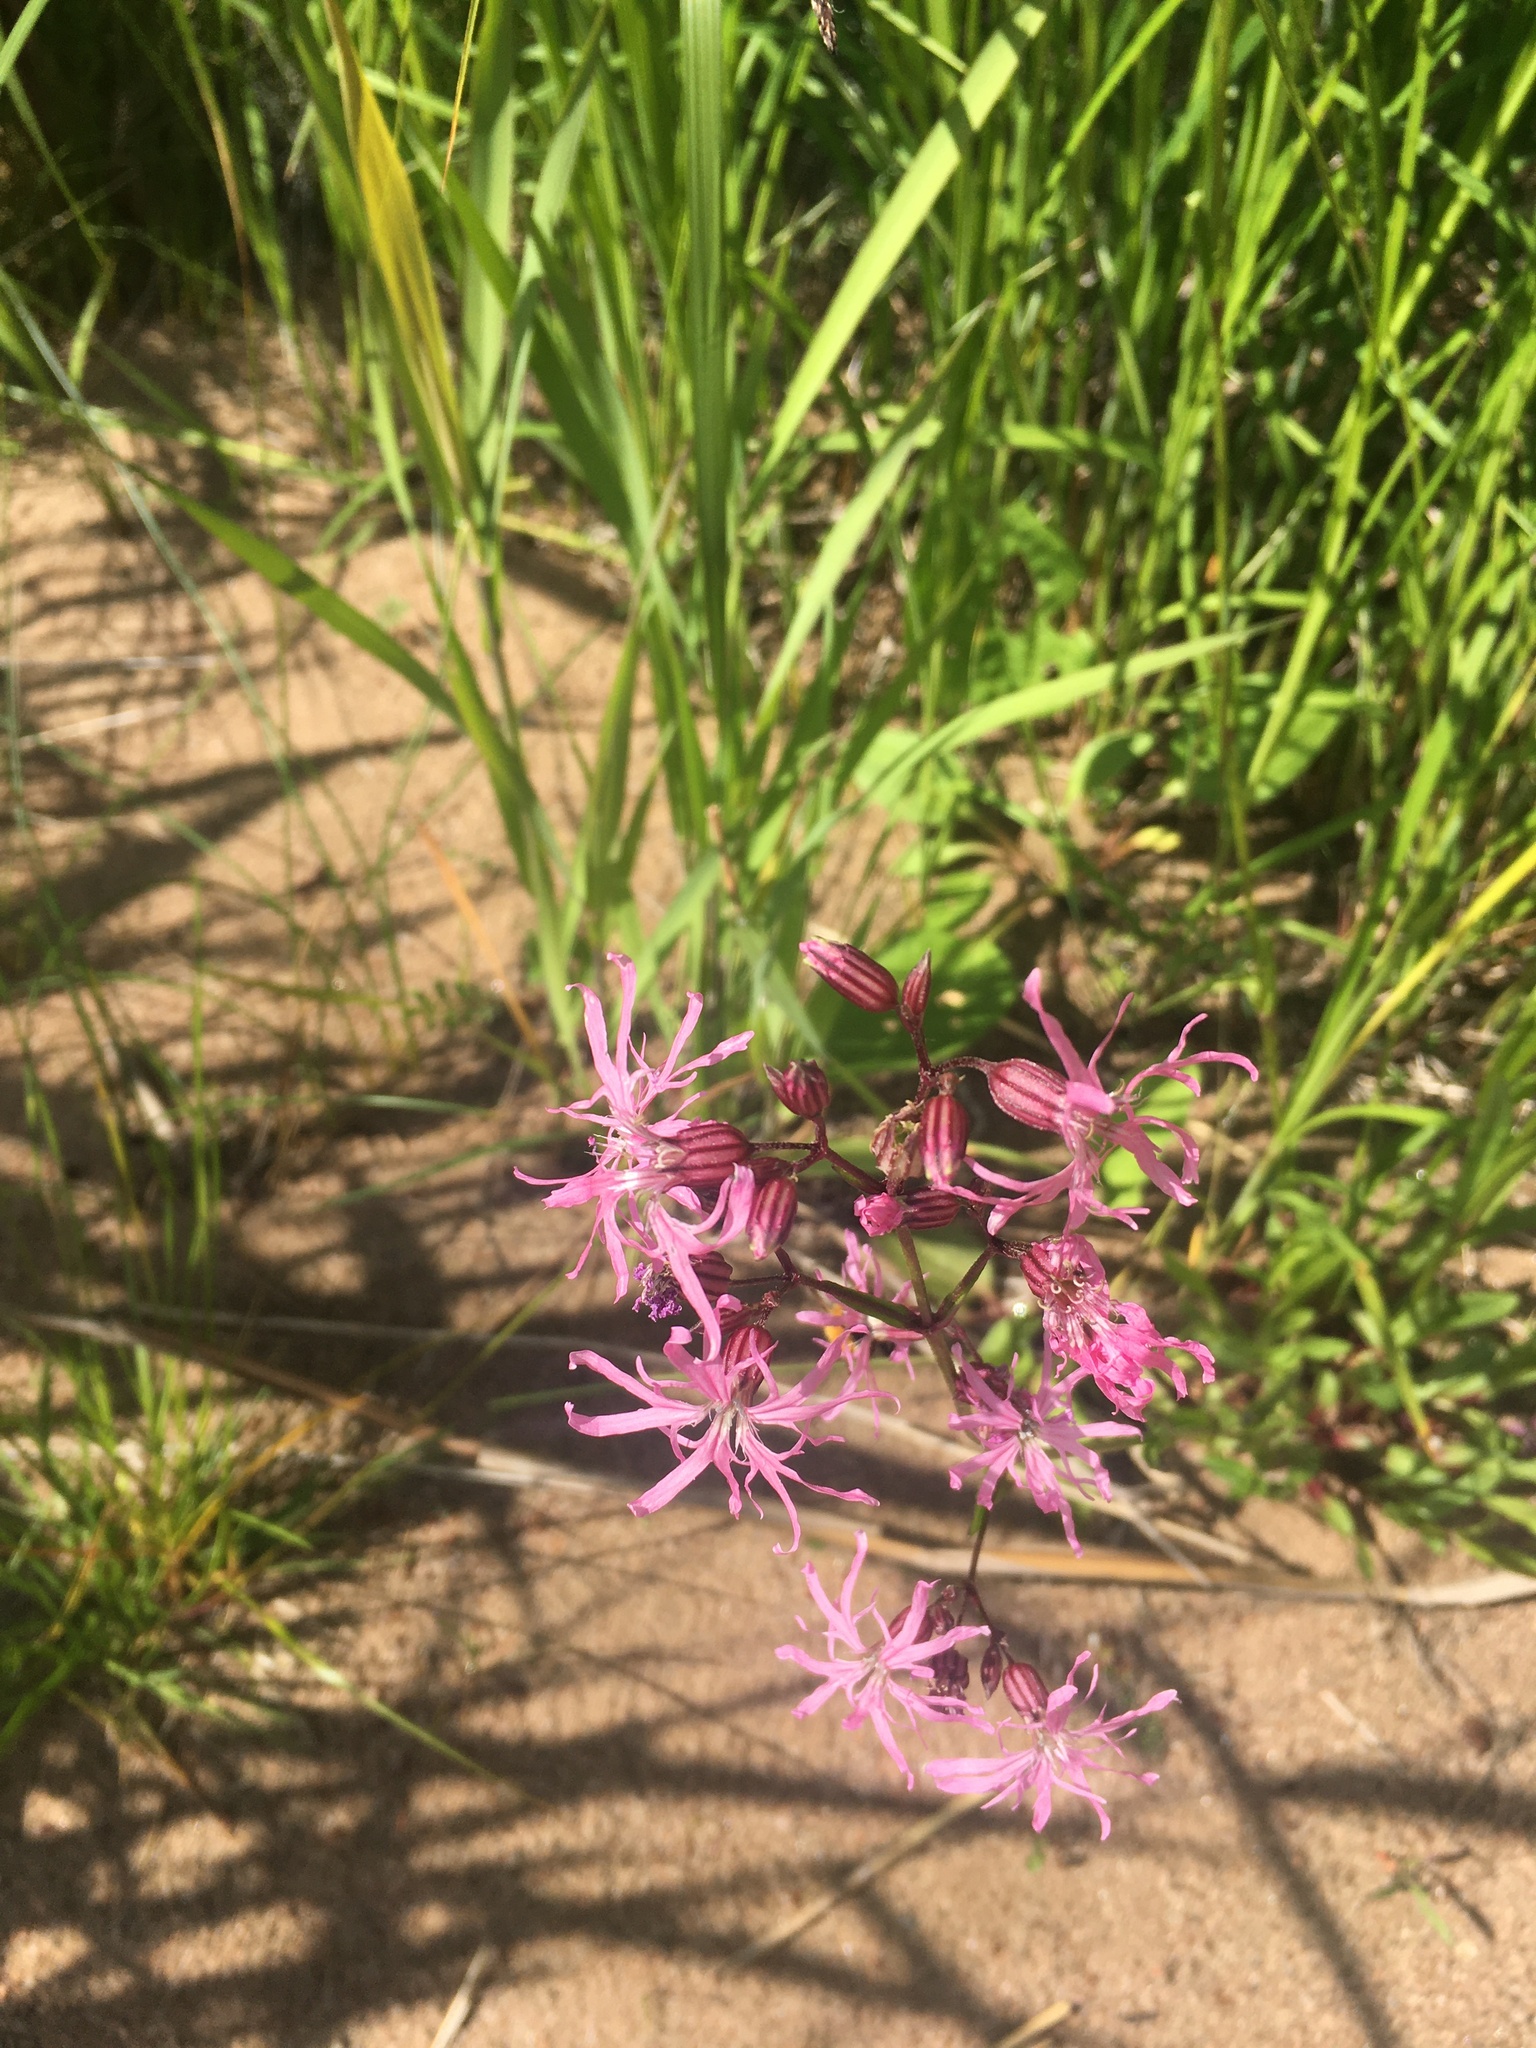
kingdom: Plantae
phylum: Tracheophyta
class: Magnoliopsida
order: Caryophyllales
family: Caryophyllaceae
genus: Silene
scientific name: Silene flos-cuculi
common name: Ragged-robin
